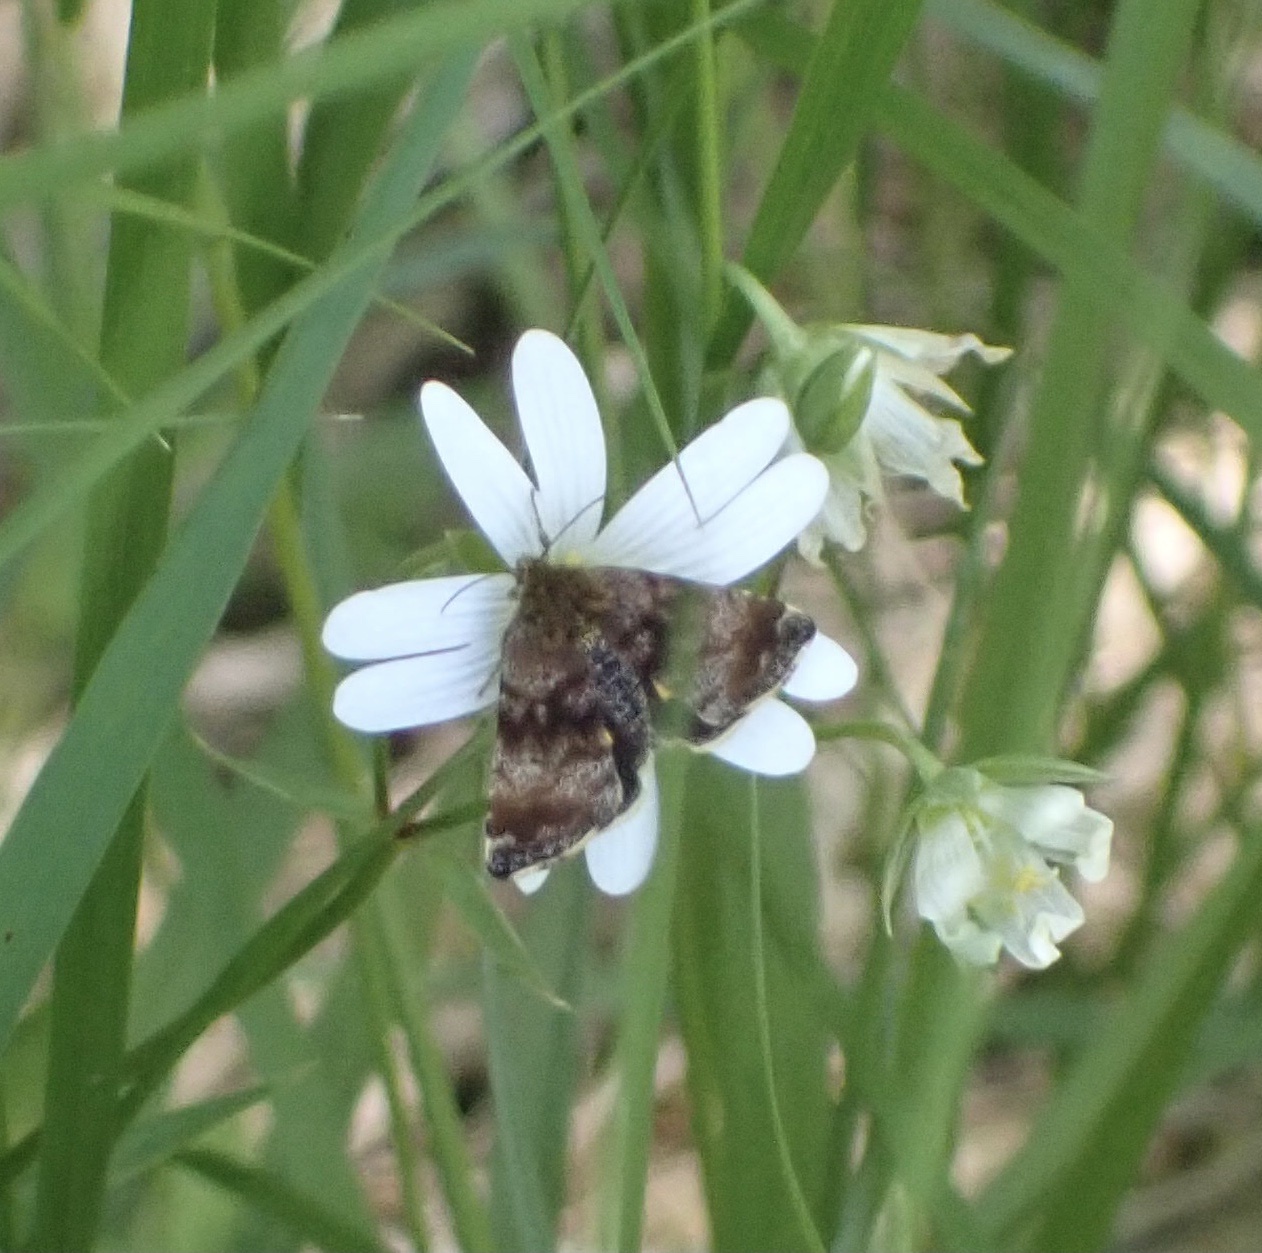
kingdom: Animalia
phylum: Arthropoda
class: Insecta
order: Lepidoptera
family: Noctuidae
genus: Panemeria
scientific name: Panemeria tenebrata
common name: Small yellow underwing
